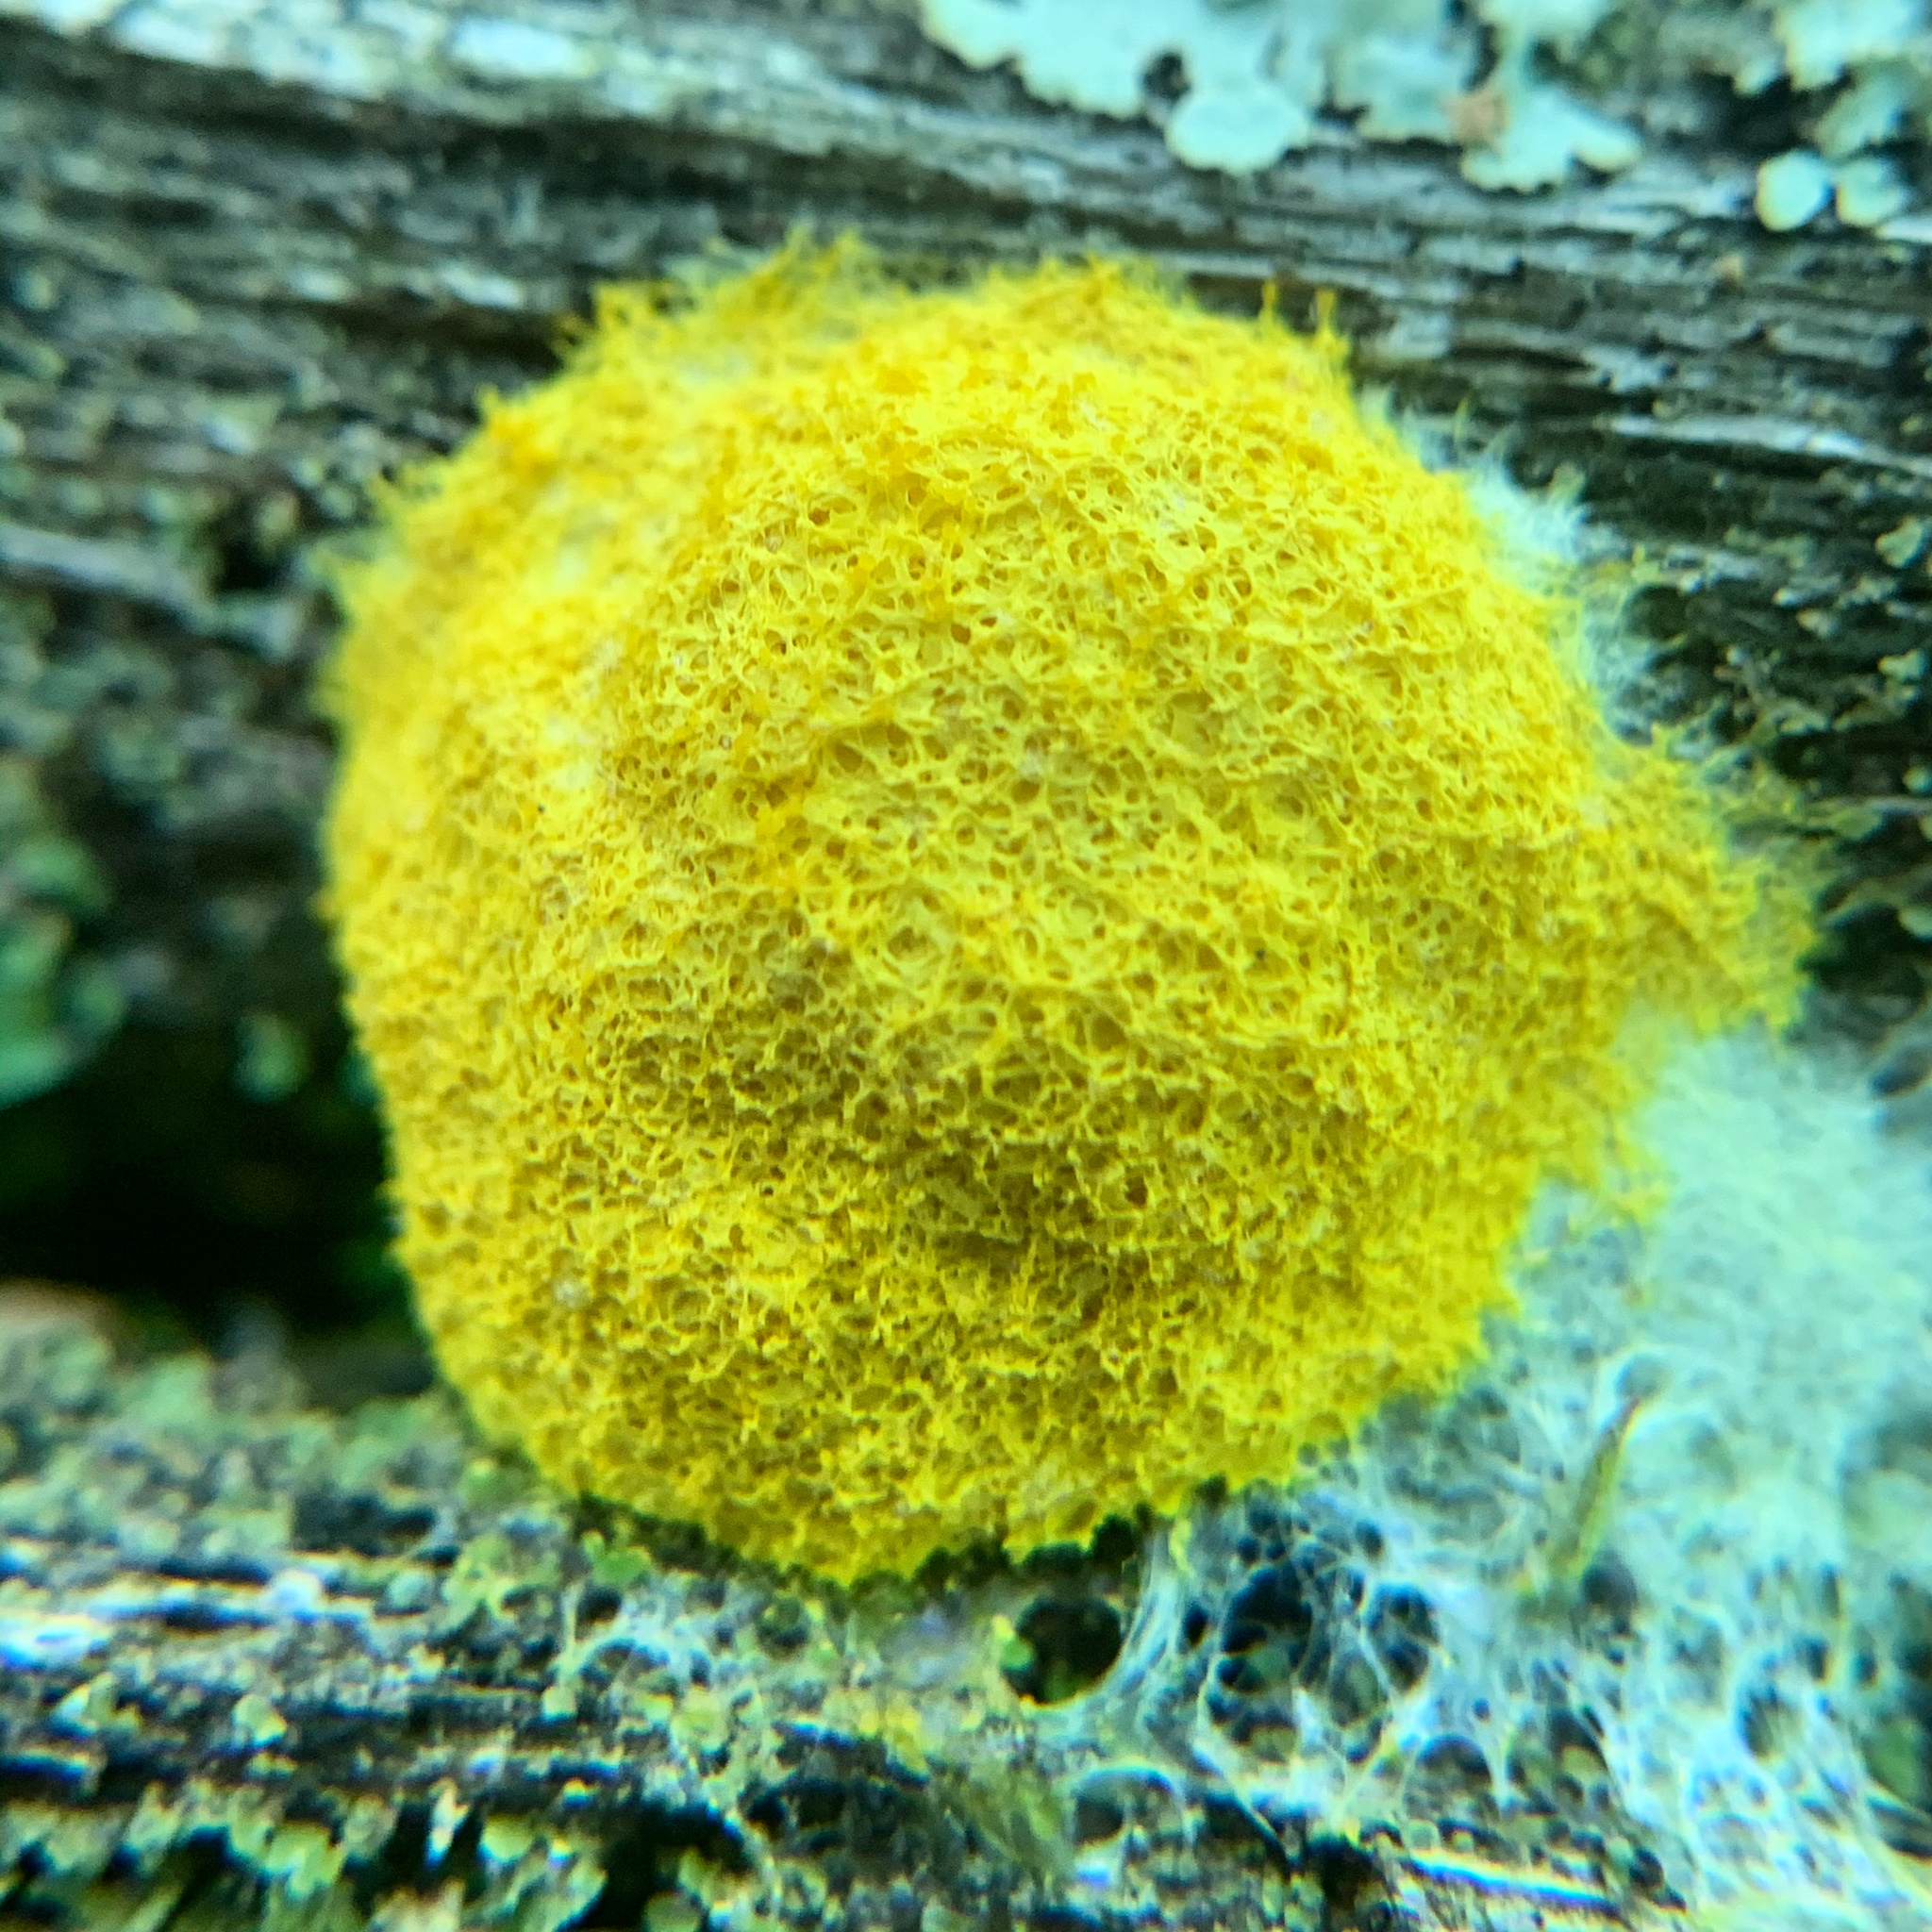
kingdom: Protozoa
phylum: Mycetozoa
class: Myxomycetes
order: Physarales
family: Physaraceae
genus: Fuligo
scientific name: Fuligo septica
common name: Dog vomit slime mold
